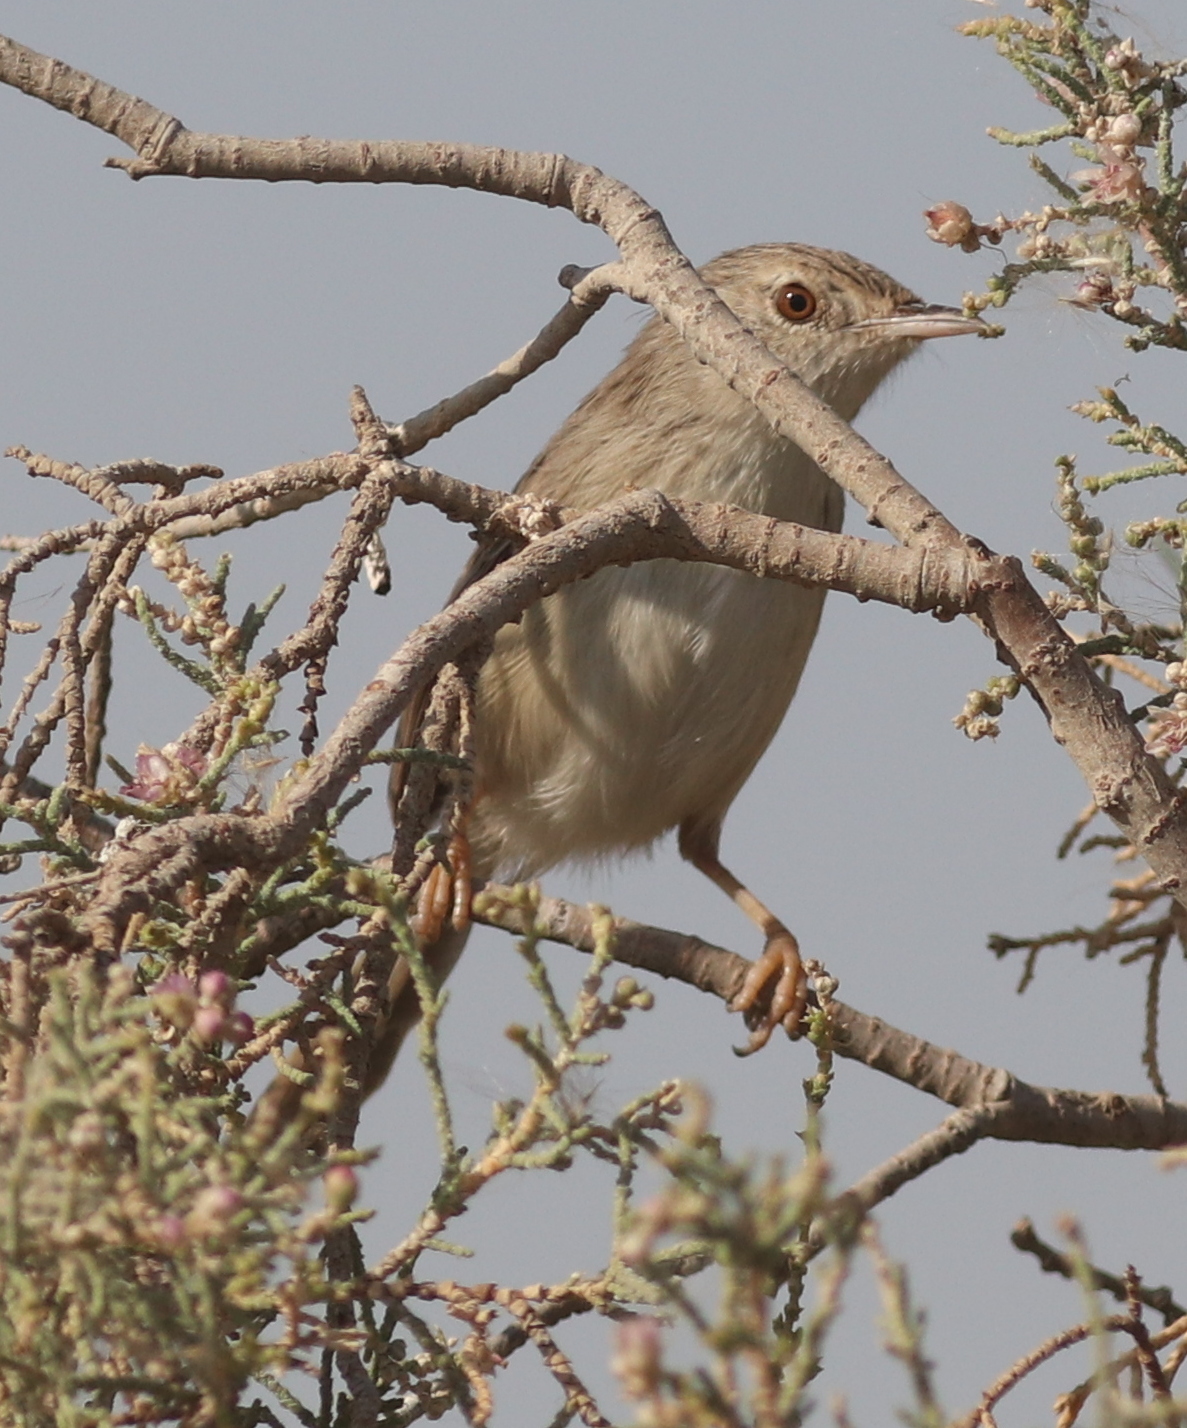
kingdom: Animalia
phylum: Chordata
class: Aves
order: Passeriformes
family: Cisticolidae
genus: Prinia
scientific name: Prinia lepida
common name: Delicate prinia
